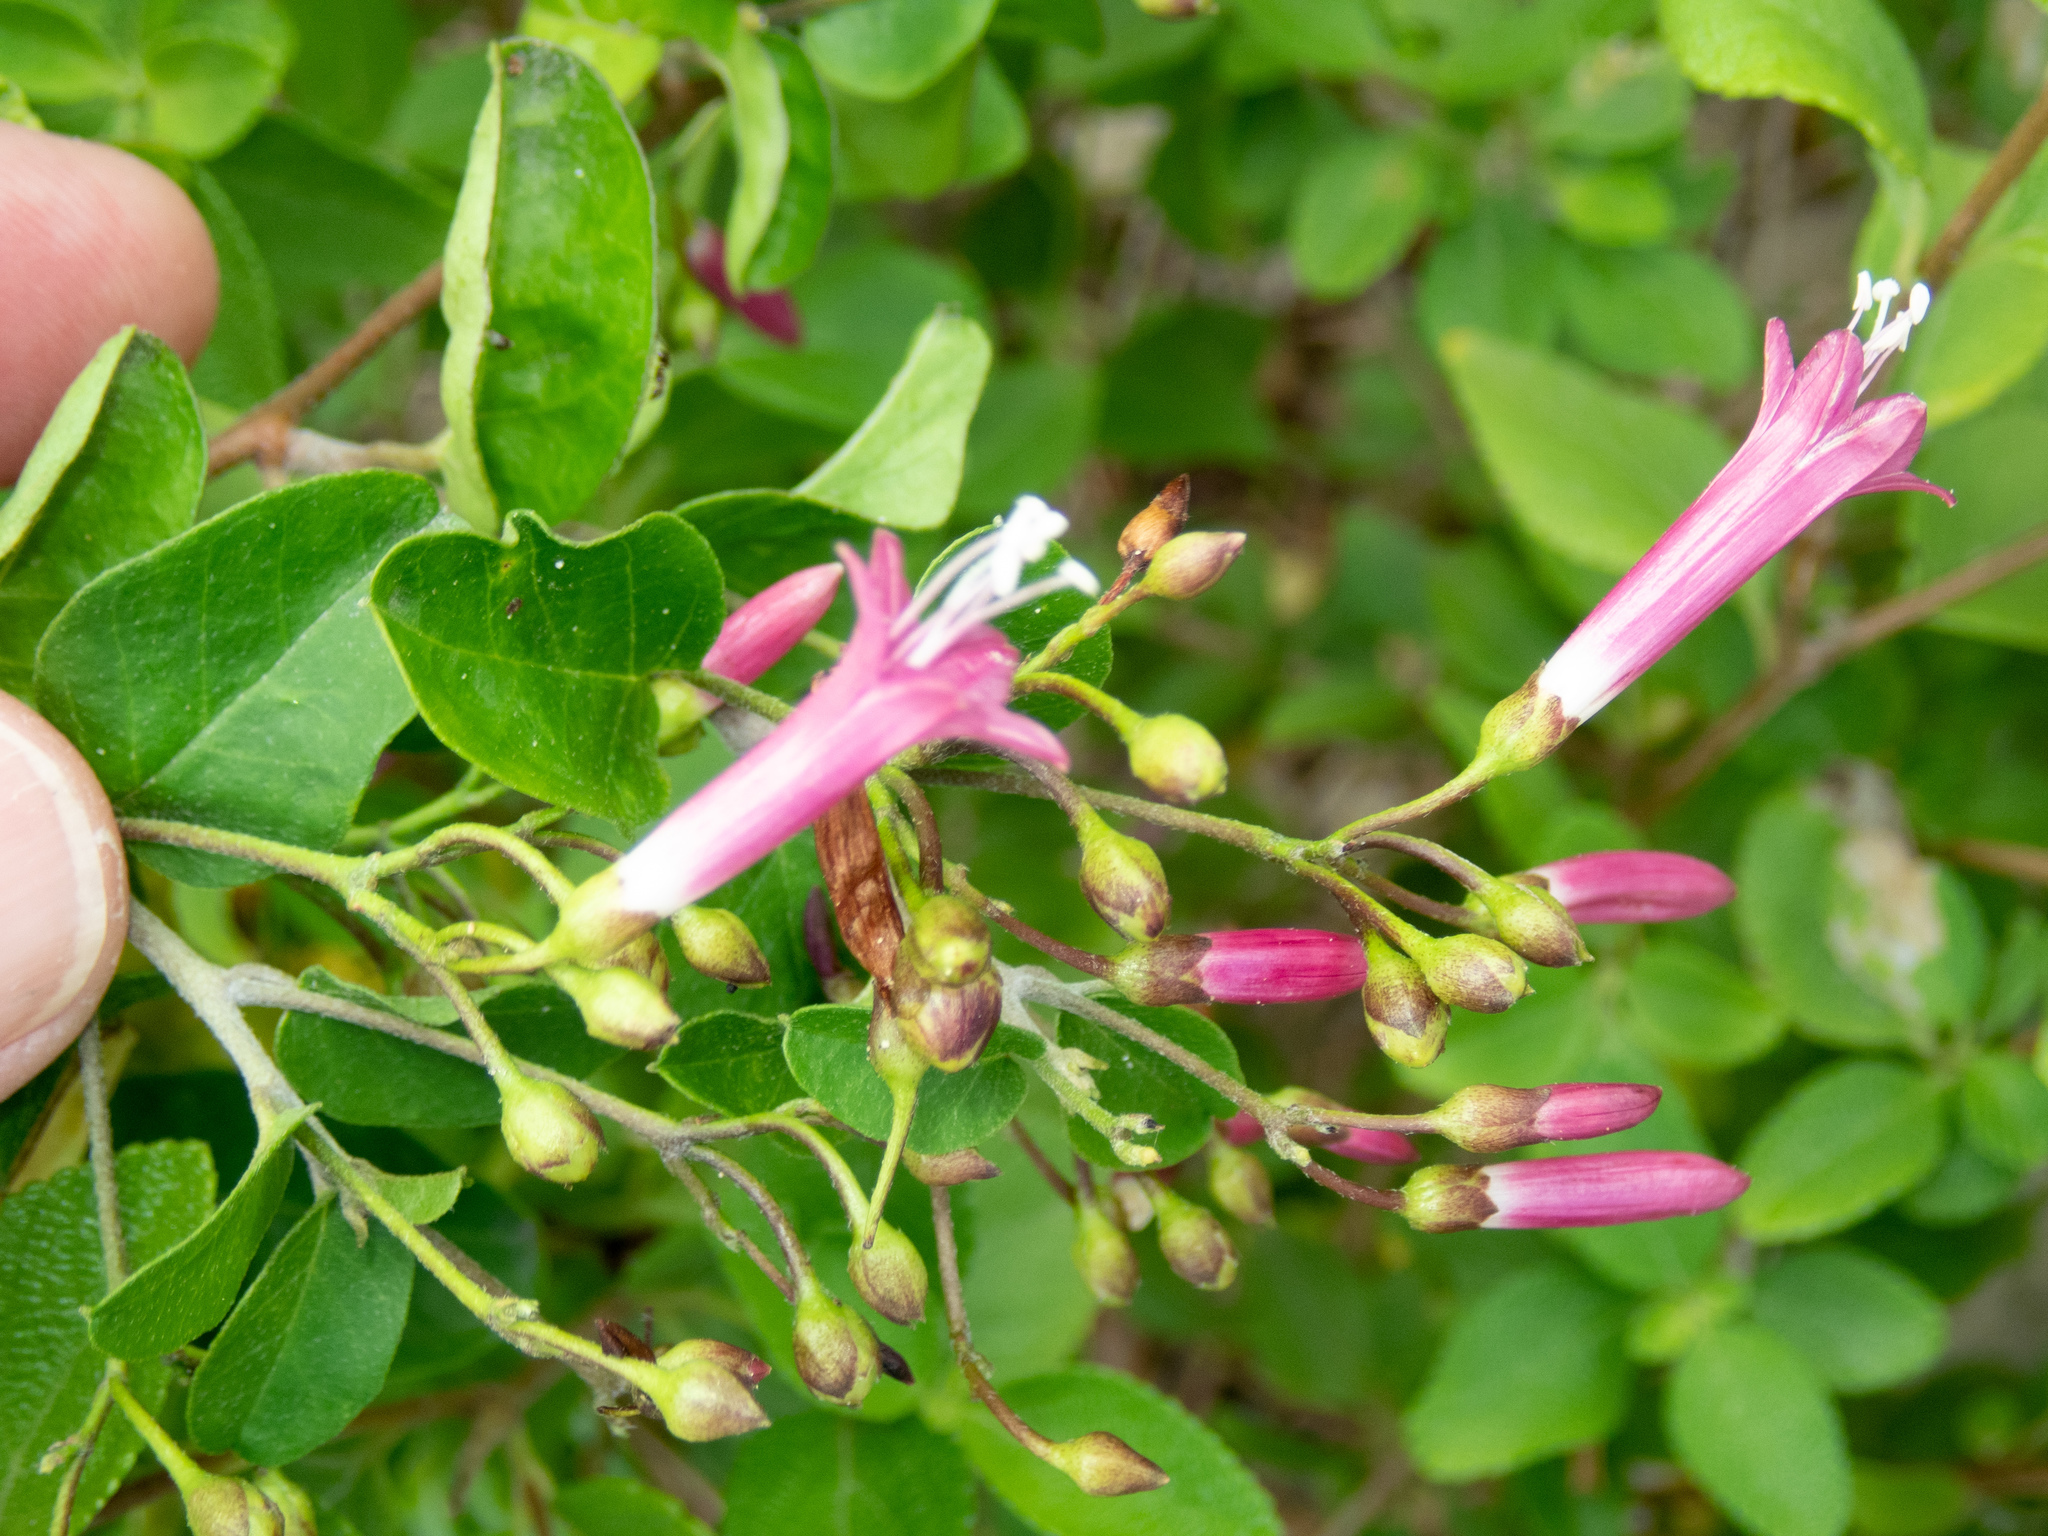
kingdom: Plantae
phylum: Tracheophyta
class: Magnoliopsida
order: Solanales
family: Convolvulaceae
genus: Jacquemontia
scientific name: Jacquemontia solanifolia
